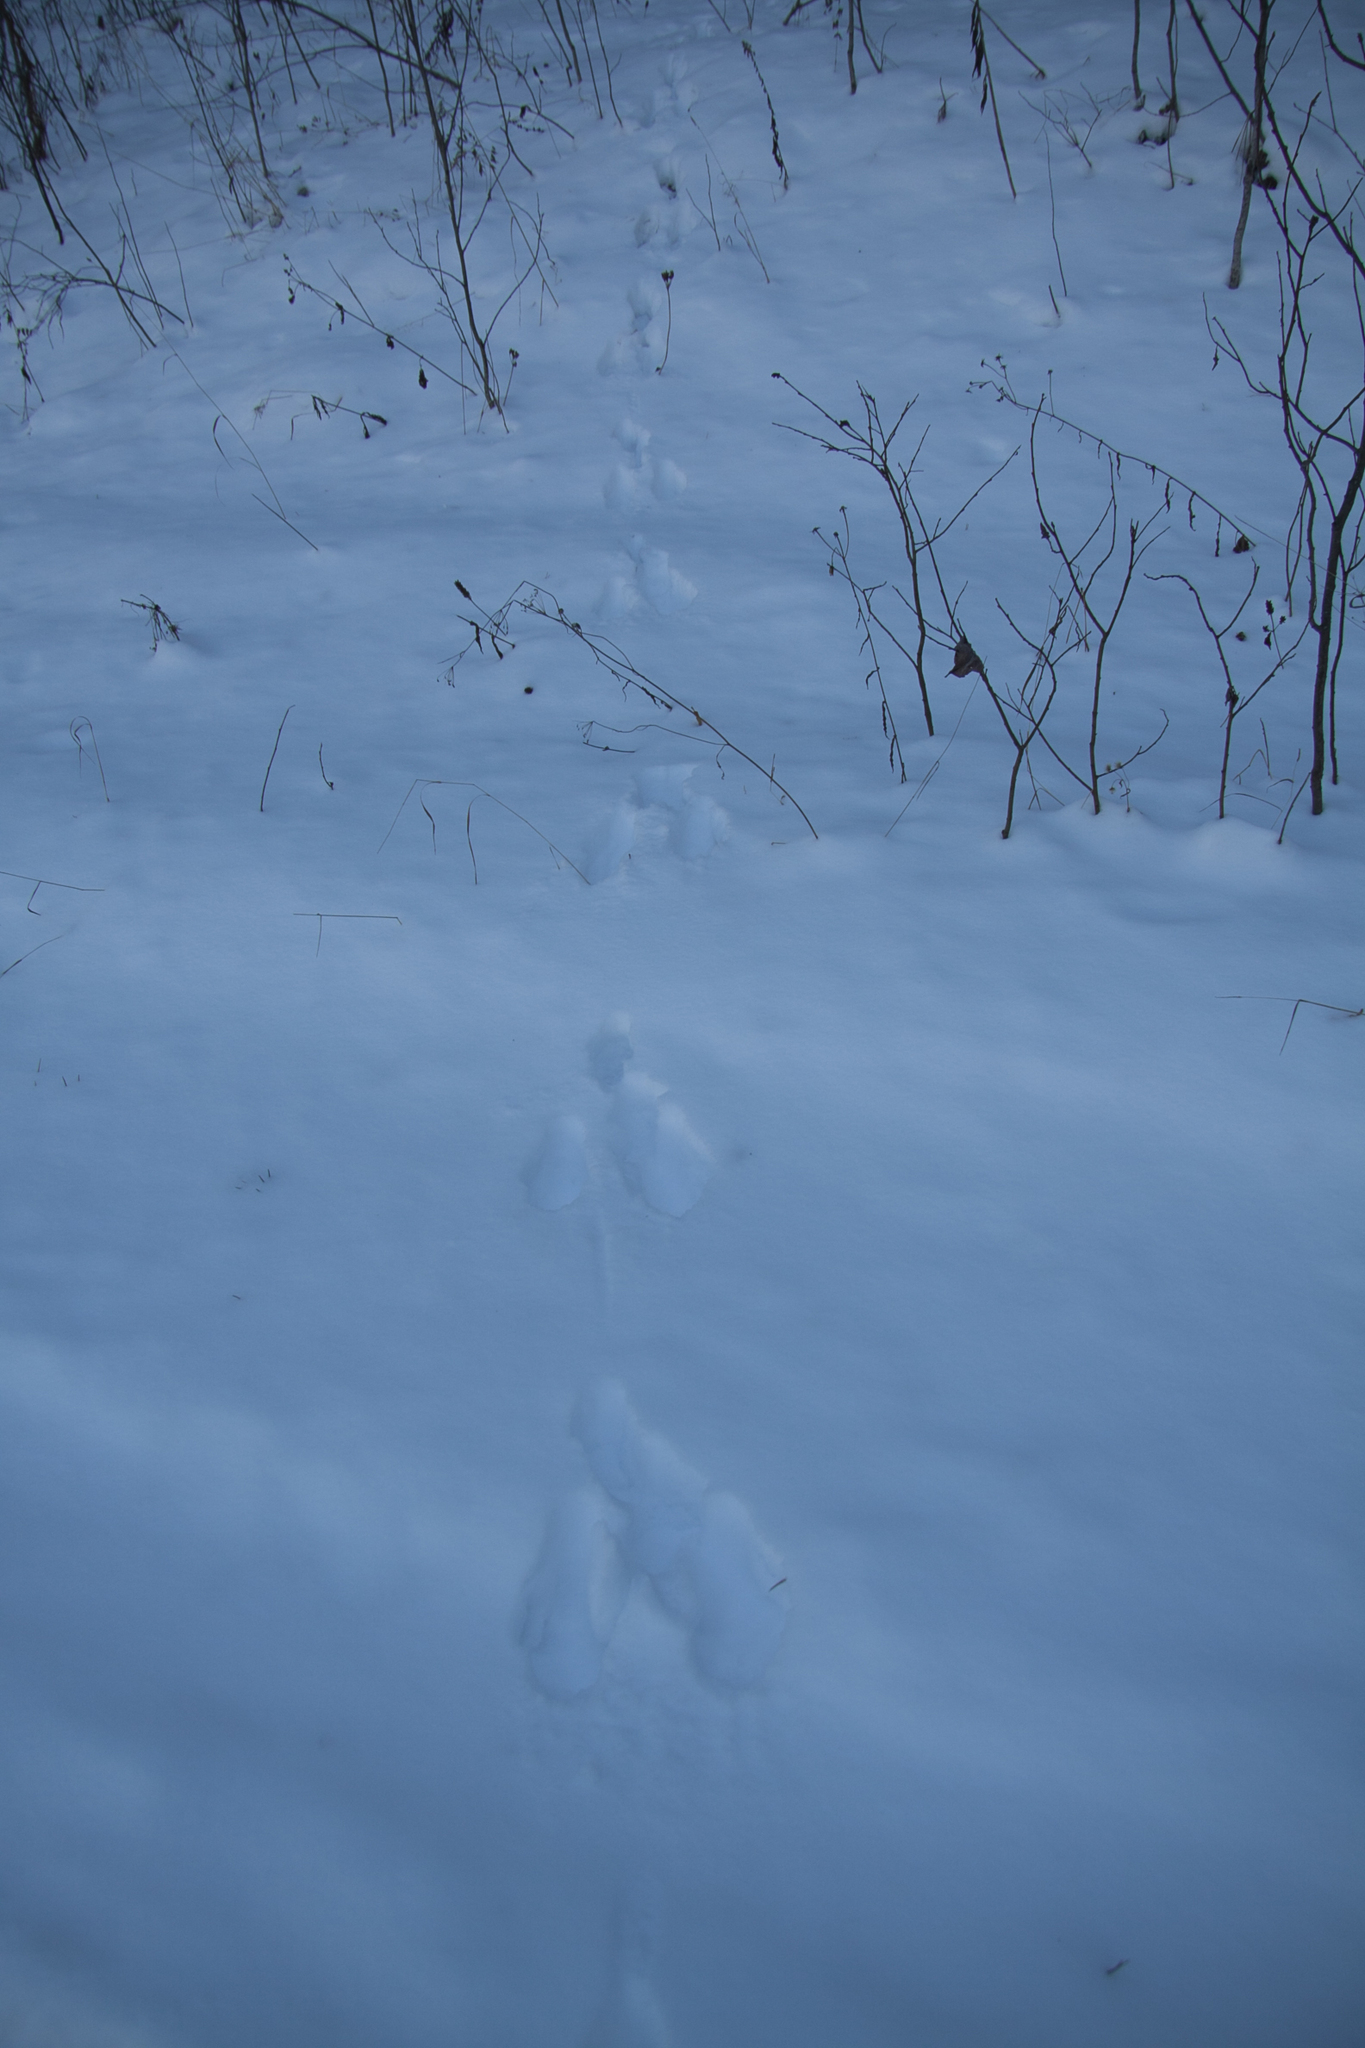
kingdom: Animalia
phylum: Chordata
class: Mammalia
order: Lagomorpha
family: Leporidae
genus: Lepus
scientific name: Lepus timidus
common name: Mountain hare
